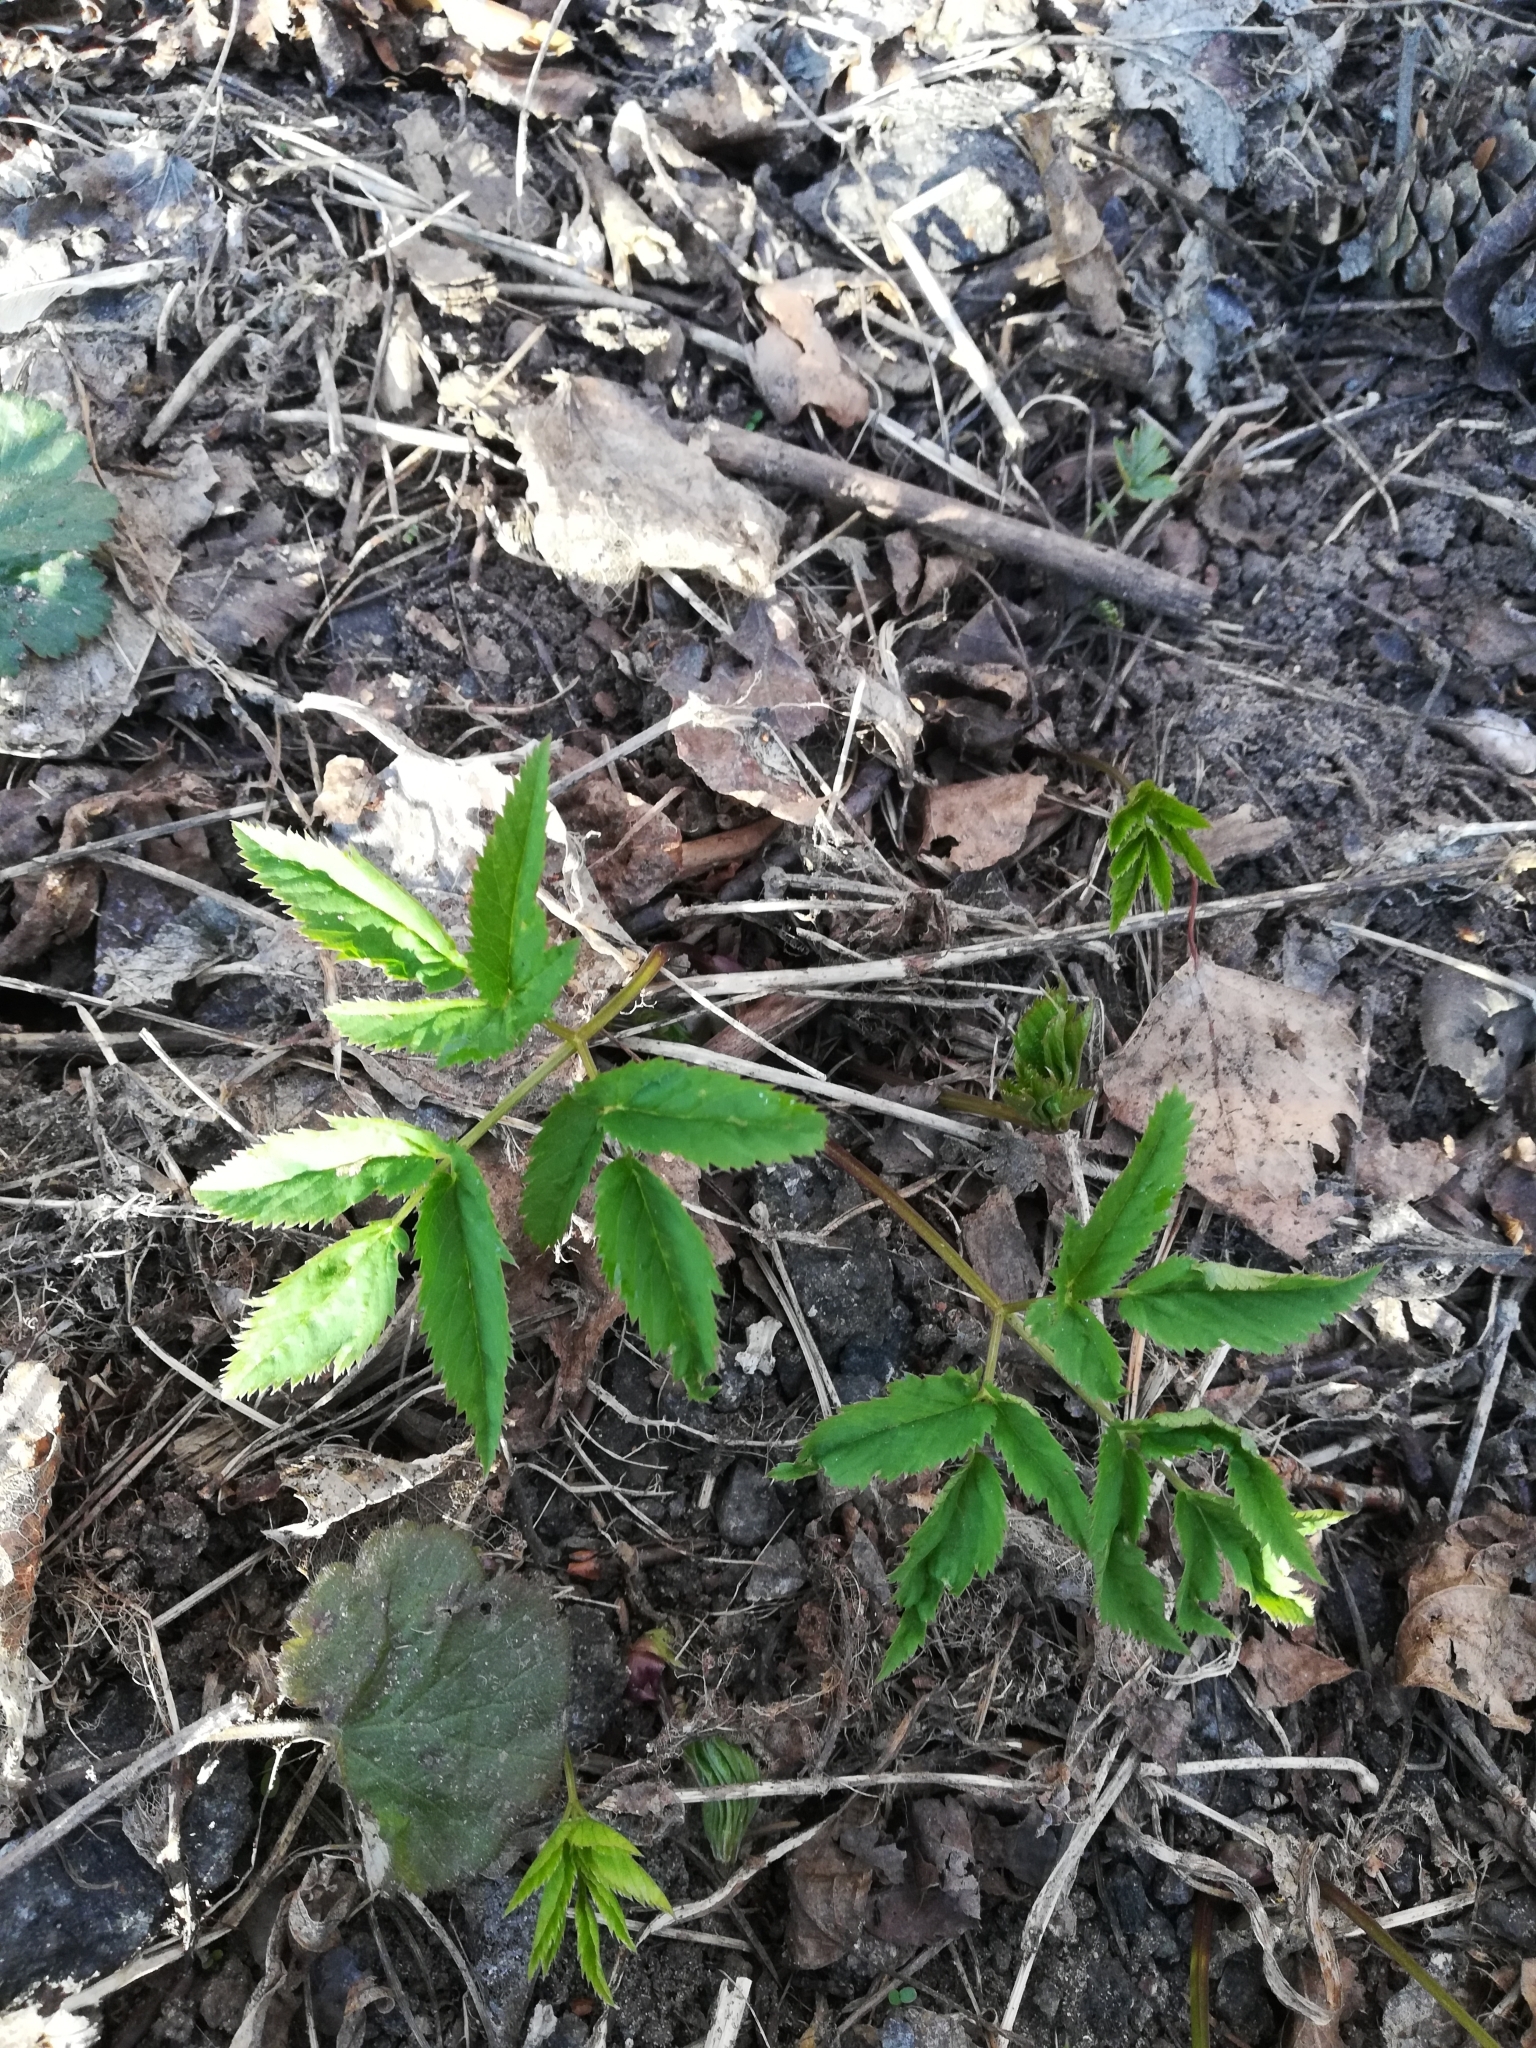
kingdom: Plantae
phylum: Tracheophyta
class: Magnoliopsida
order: Apiales
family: Apiaceae
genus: Aegopodium
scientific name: Aegopodium podagraria
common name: Ground-elder
